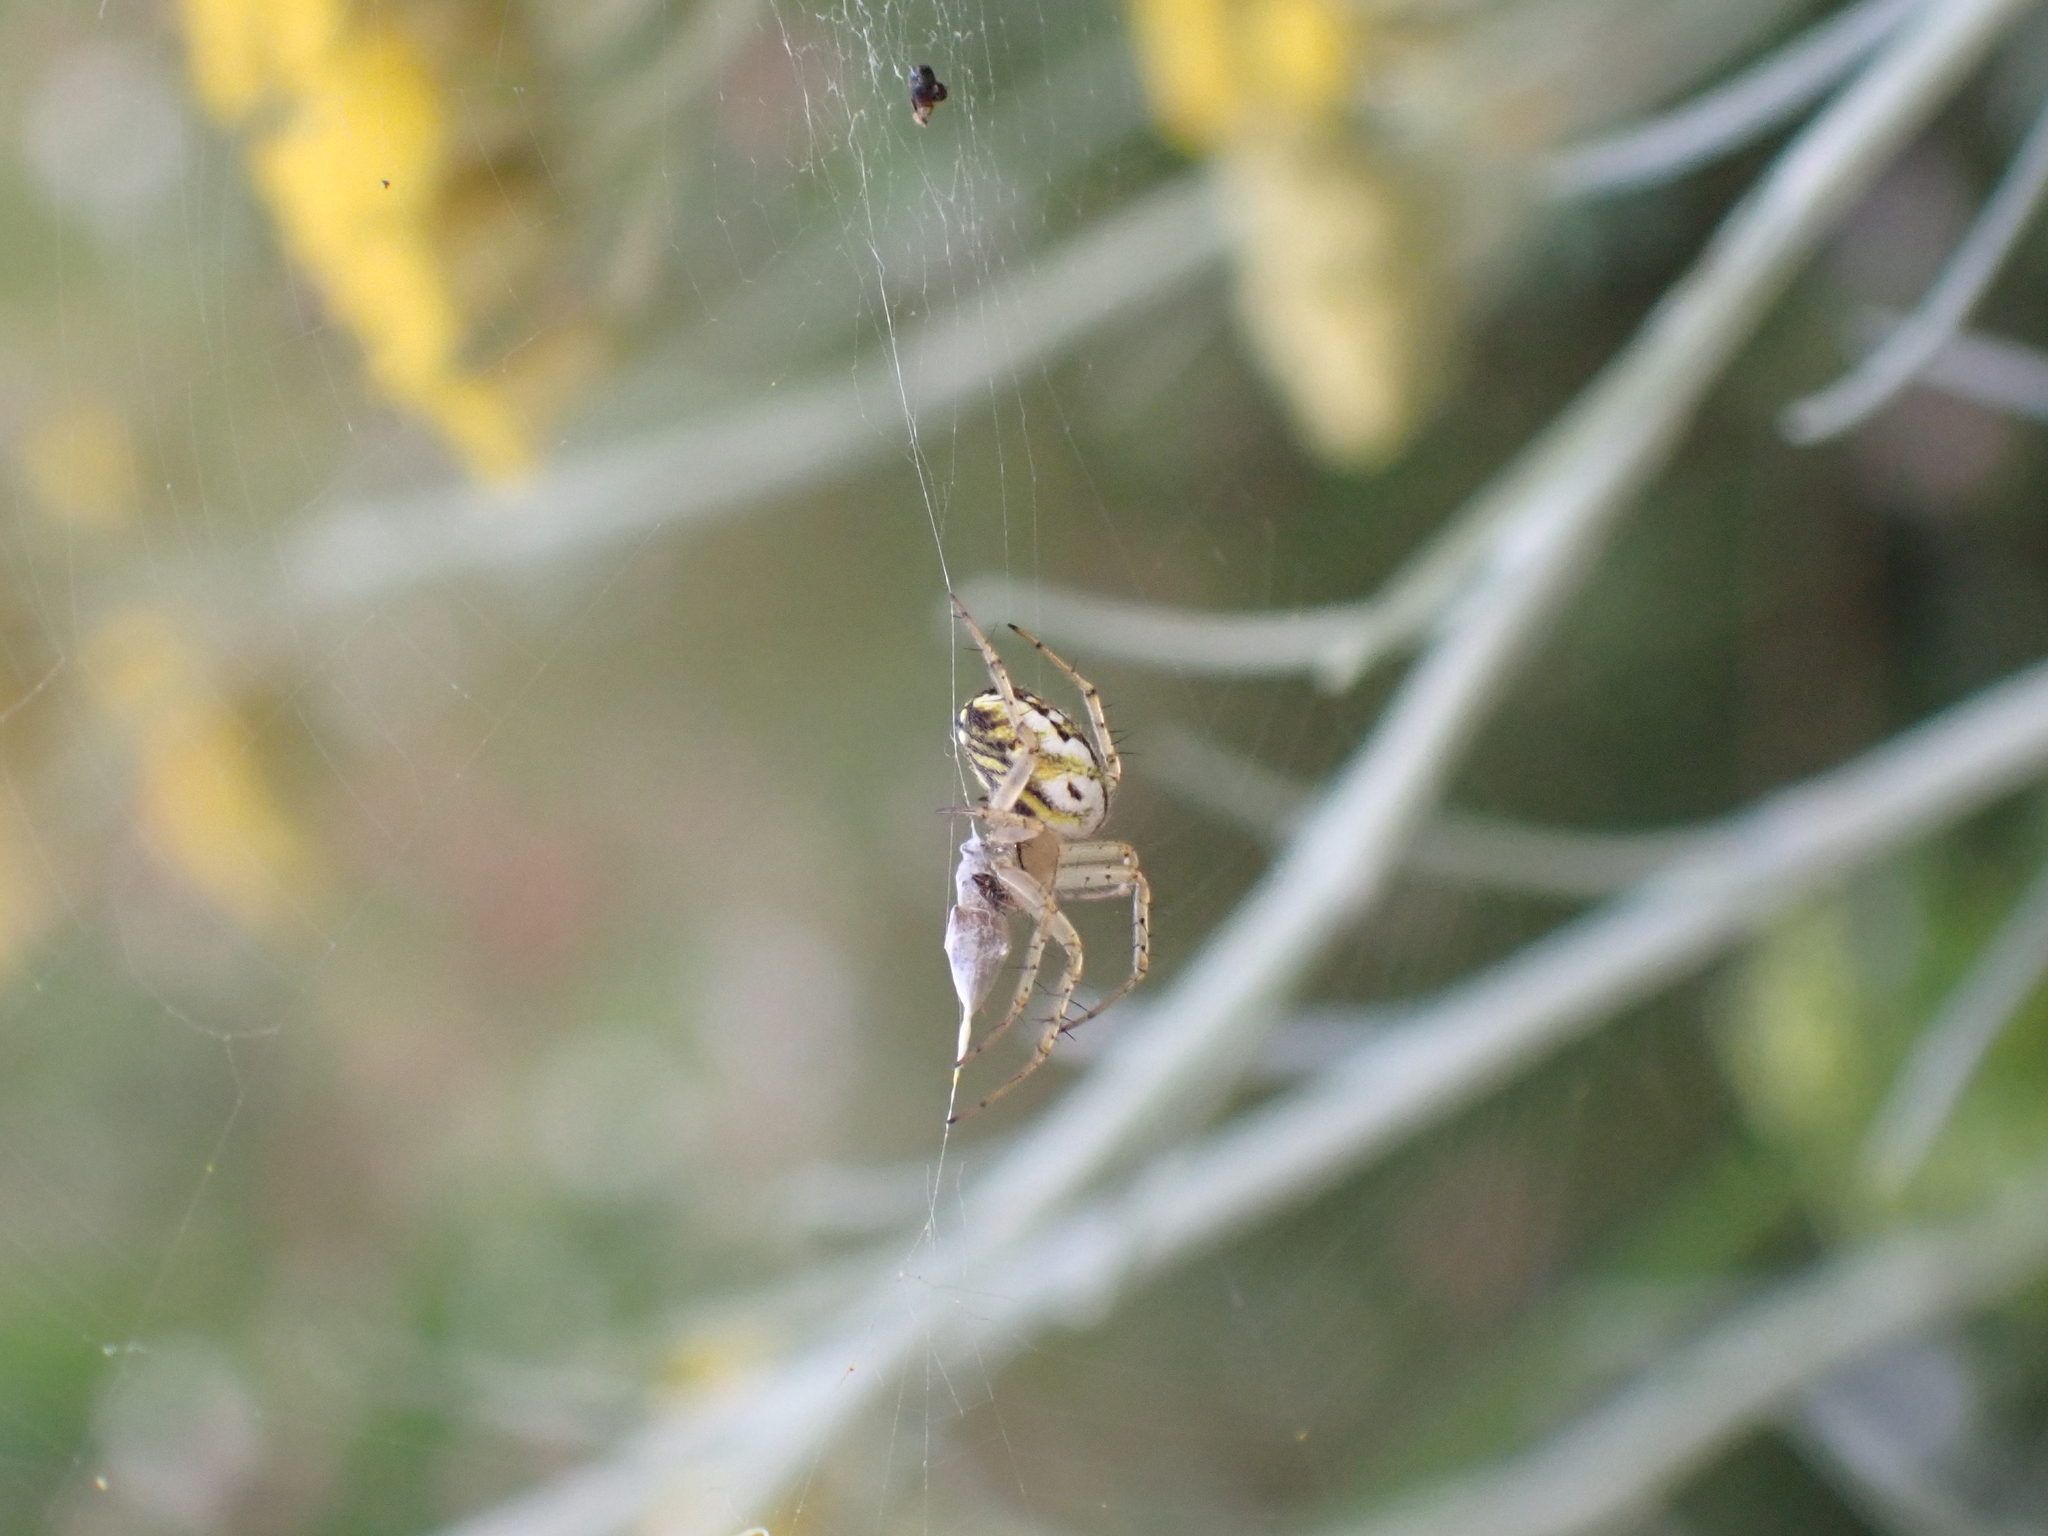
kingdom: Animalia
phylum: Arthropoda
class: Arachnida
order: Araneae
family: Araneidae
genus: Mangora
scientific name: Mangora acalypha
